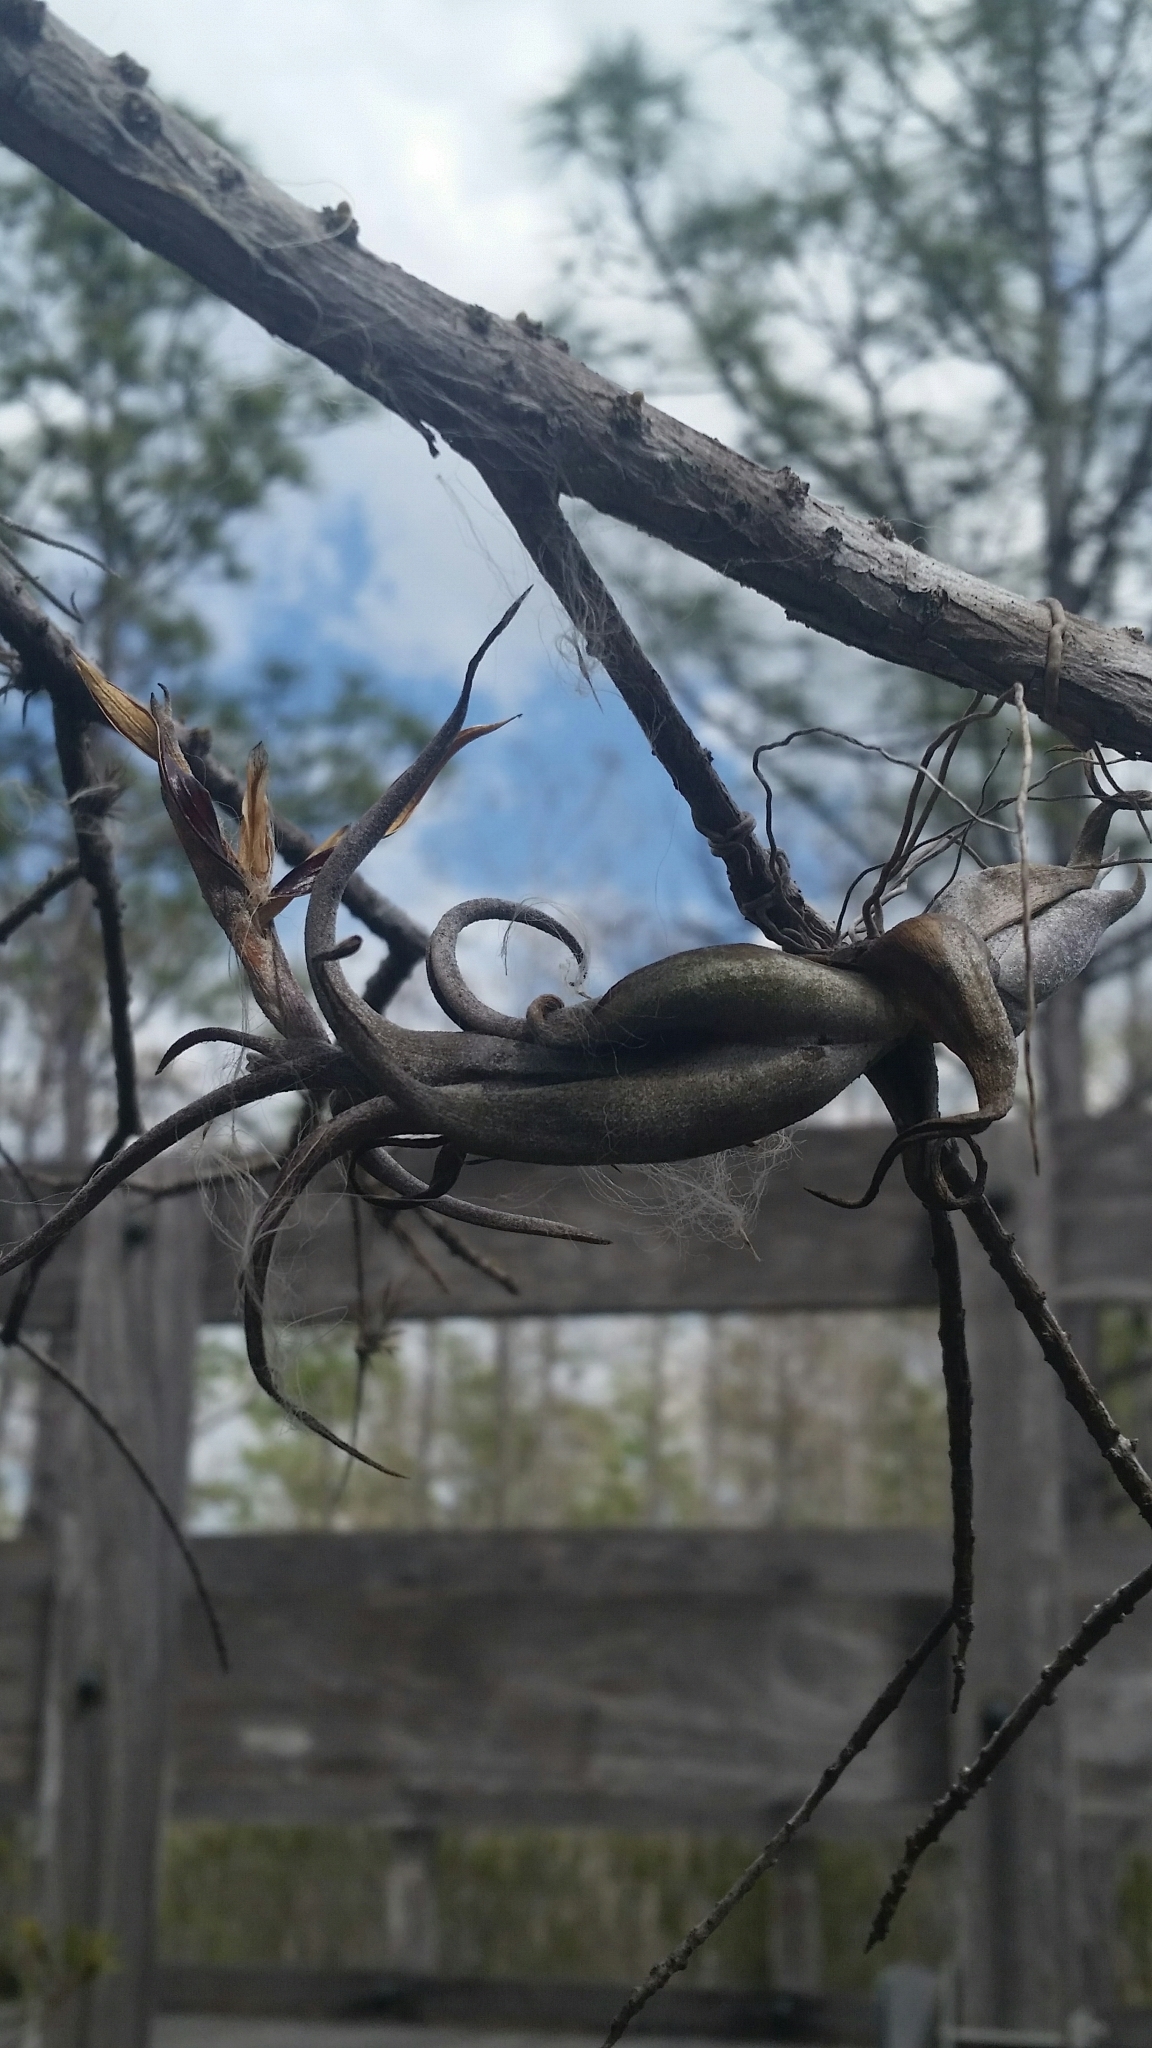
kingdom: Plantae
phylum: Tracheophyta
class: Liliopsida
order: Poales
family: Bromeliaceae
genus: Tillandsia
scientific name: Tillandsia paucifolia
